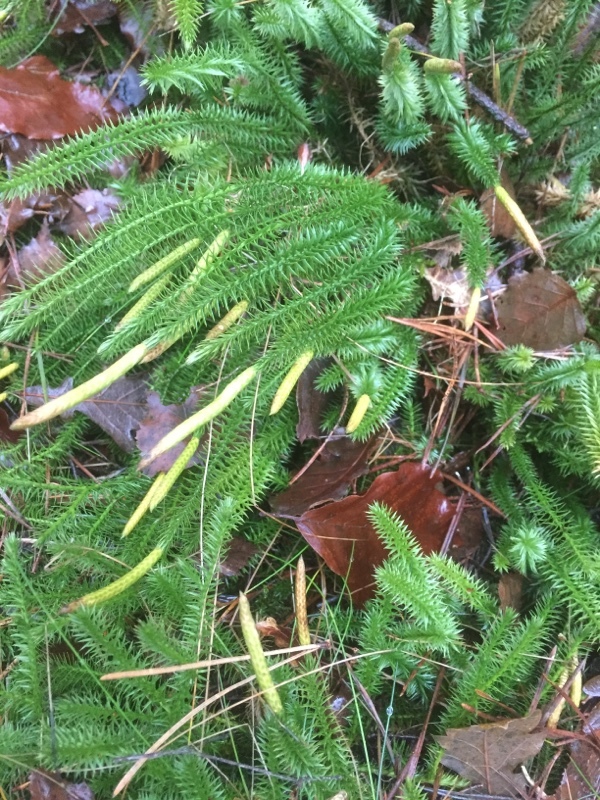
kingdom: Plantae
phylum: Tracheophyta
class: Lycopodiopsida
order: Lycopodiales
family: Lycopodiaceae
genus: Spinulum
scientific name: Spinulum annotinum
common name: Interrupted club-moss
